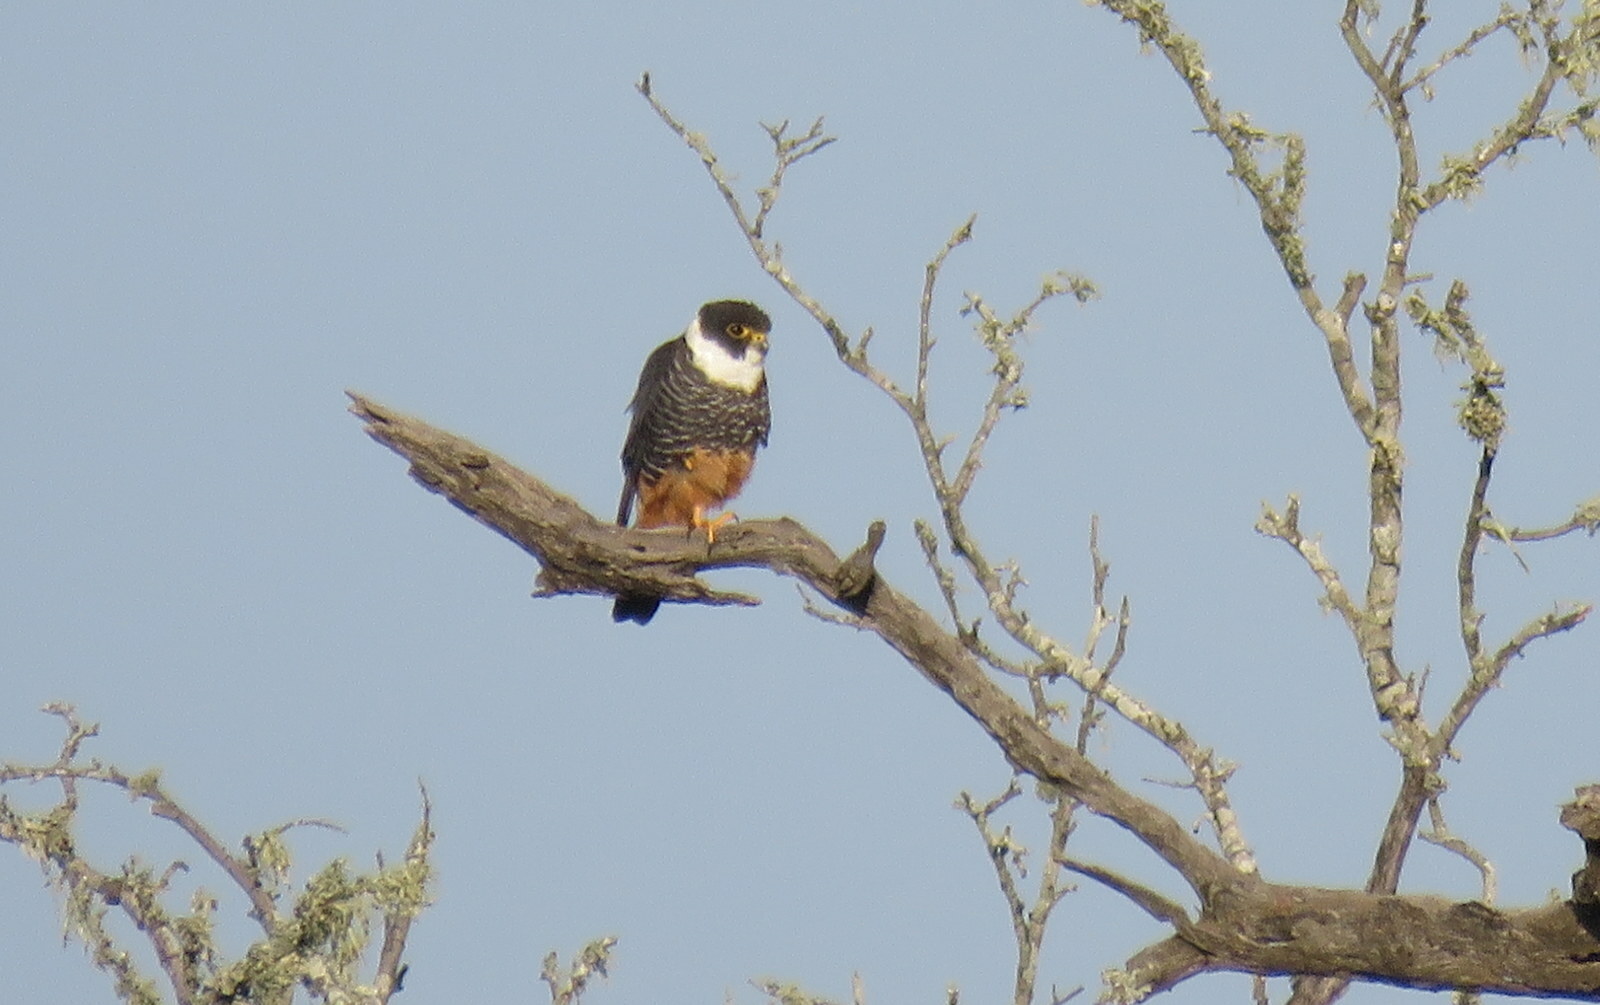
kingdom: Animalia
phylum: Chordata
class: Aves
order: Falconiformes
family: Falconidae
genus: Falco
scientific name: Falco rufigularis
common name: Bat falcon
